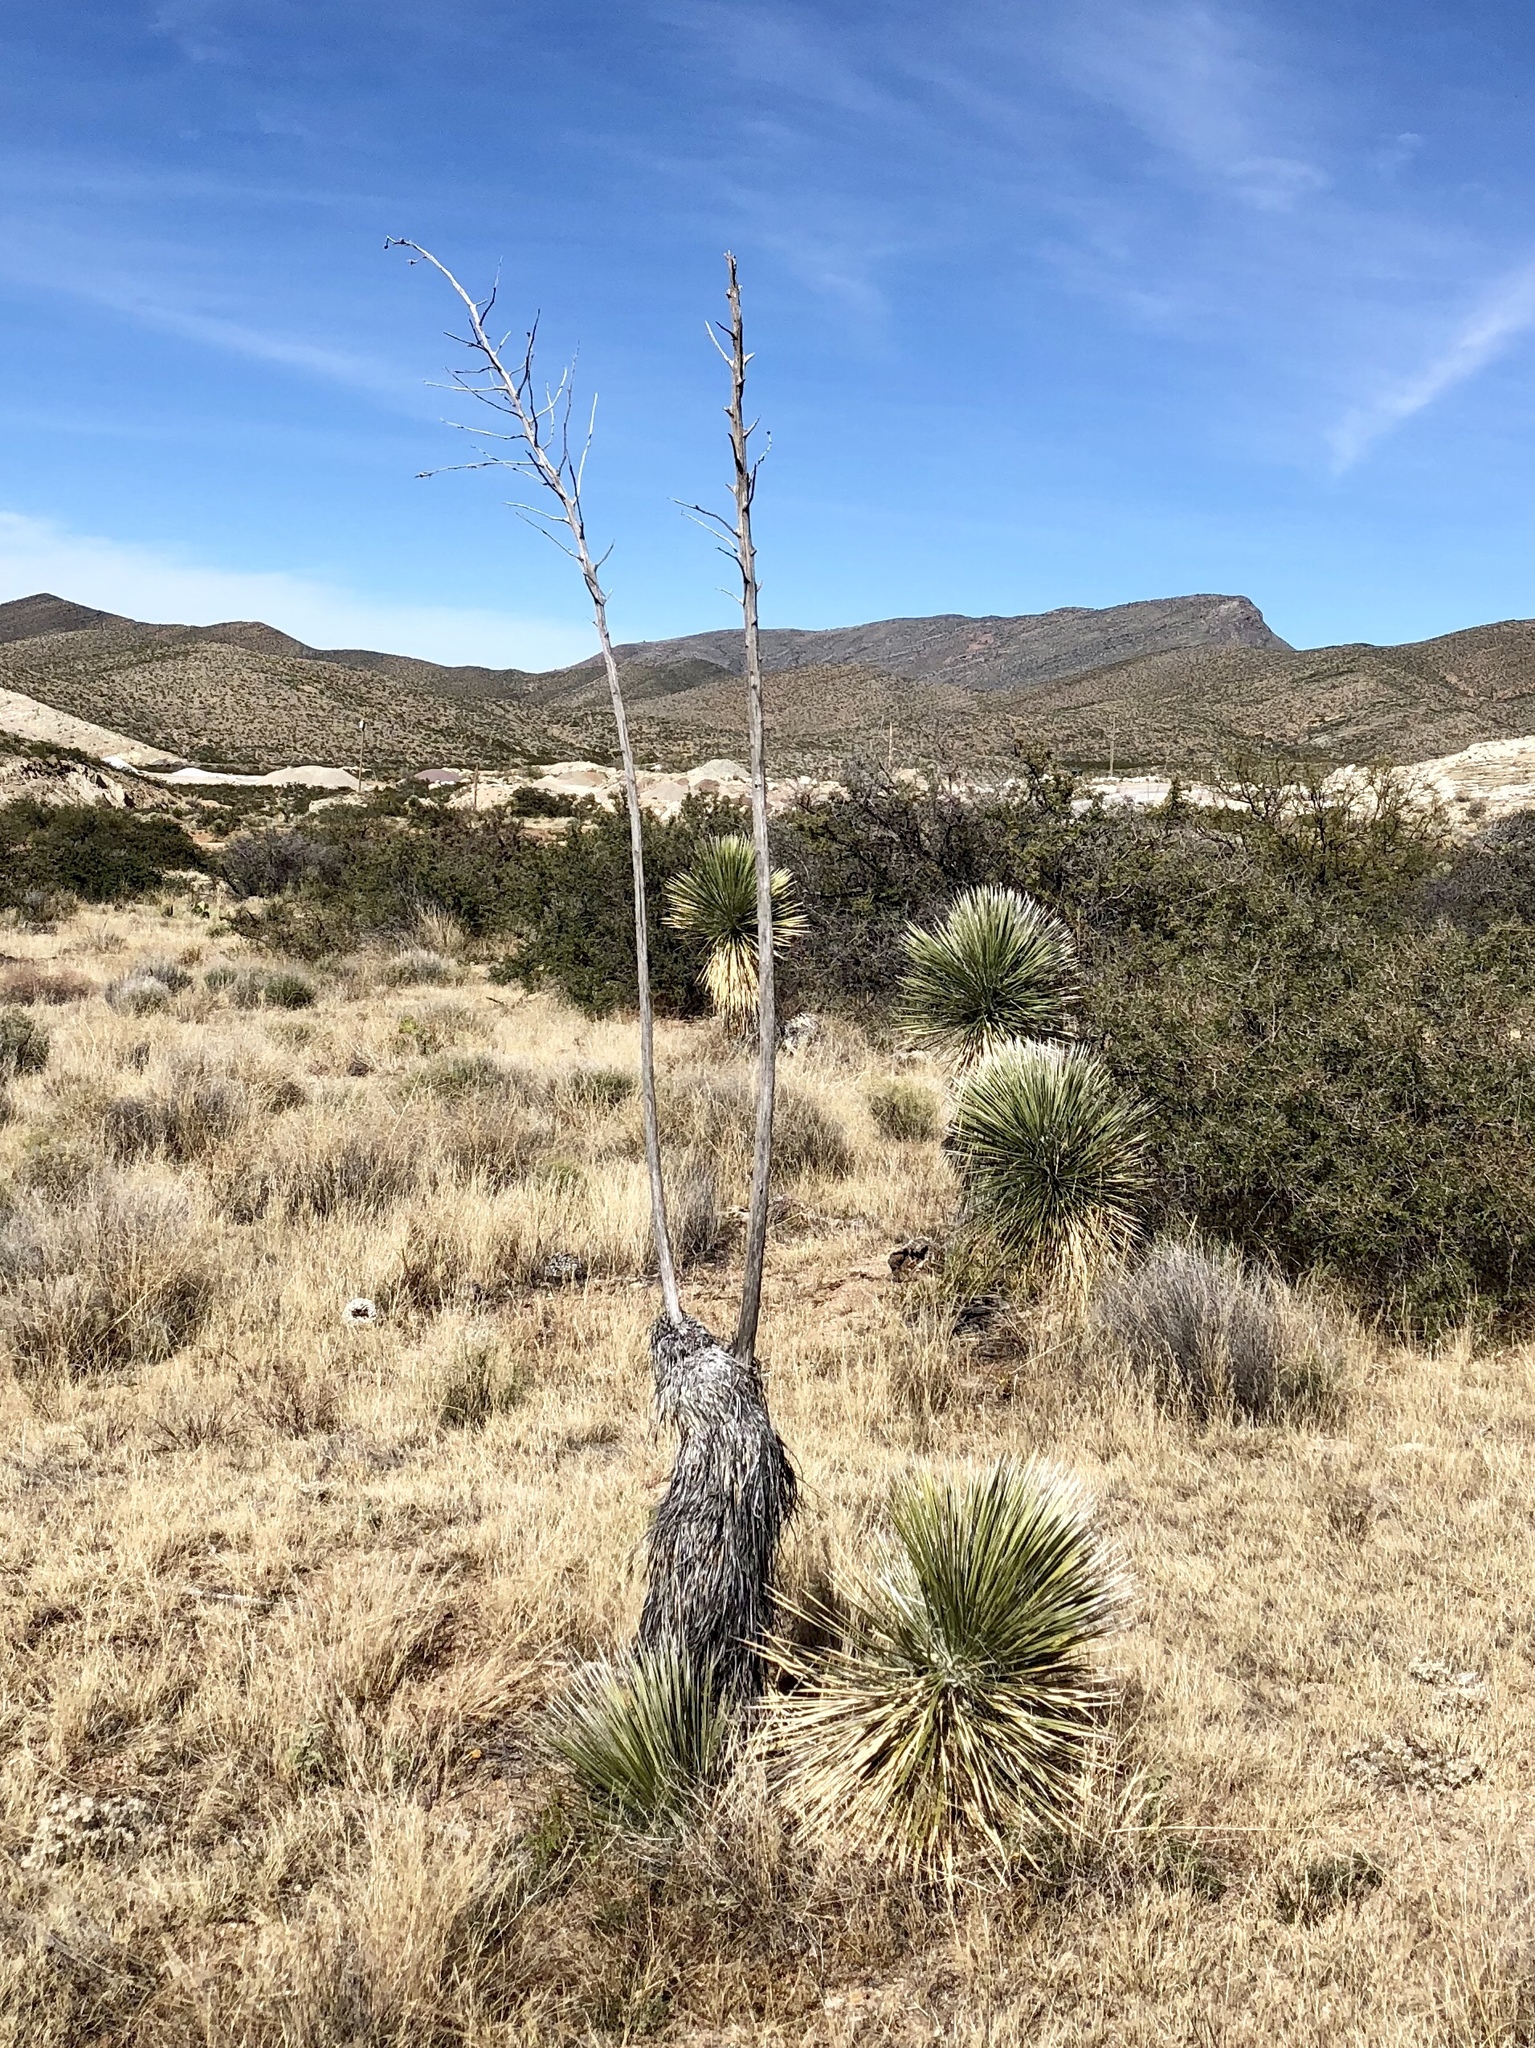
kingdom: Plantae
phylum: Tracheophyta
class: Liliopsida
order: Asparagales
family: Asparagaceae
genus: Yucca
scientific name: Yucca elata
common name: Palmella
